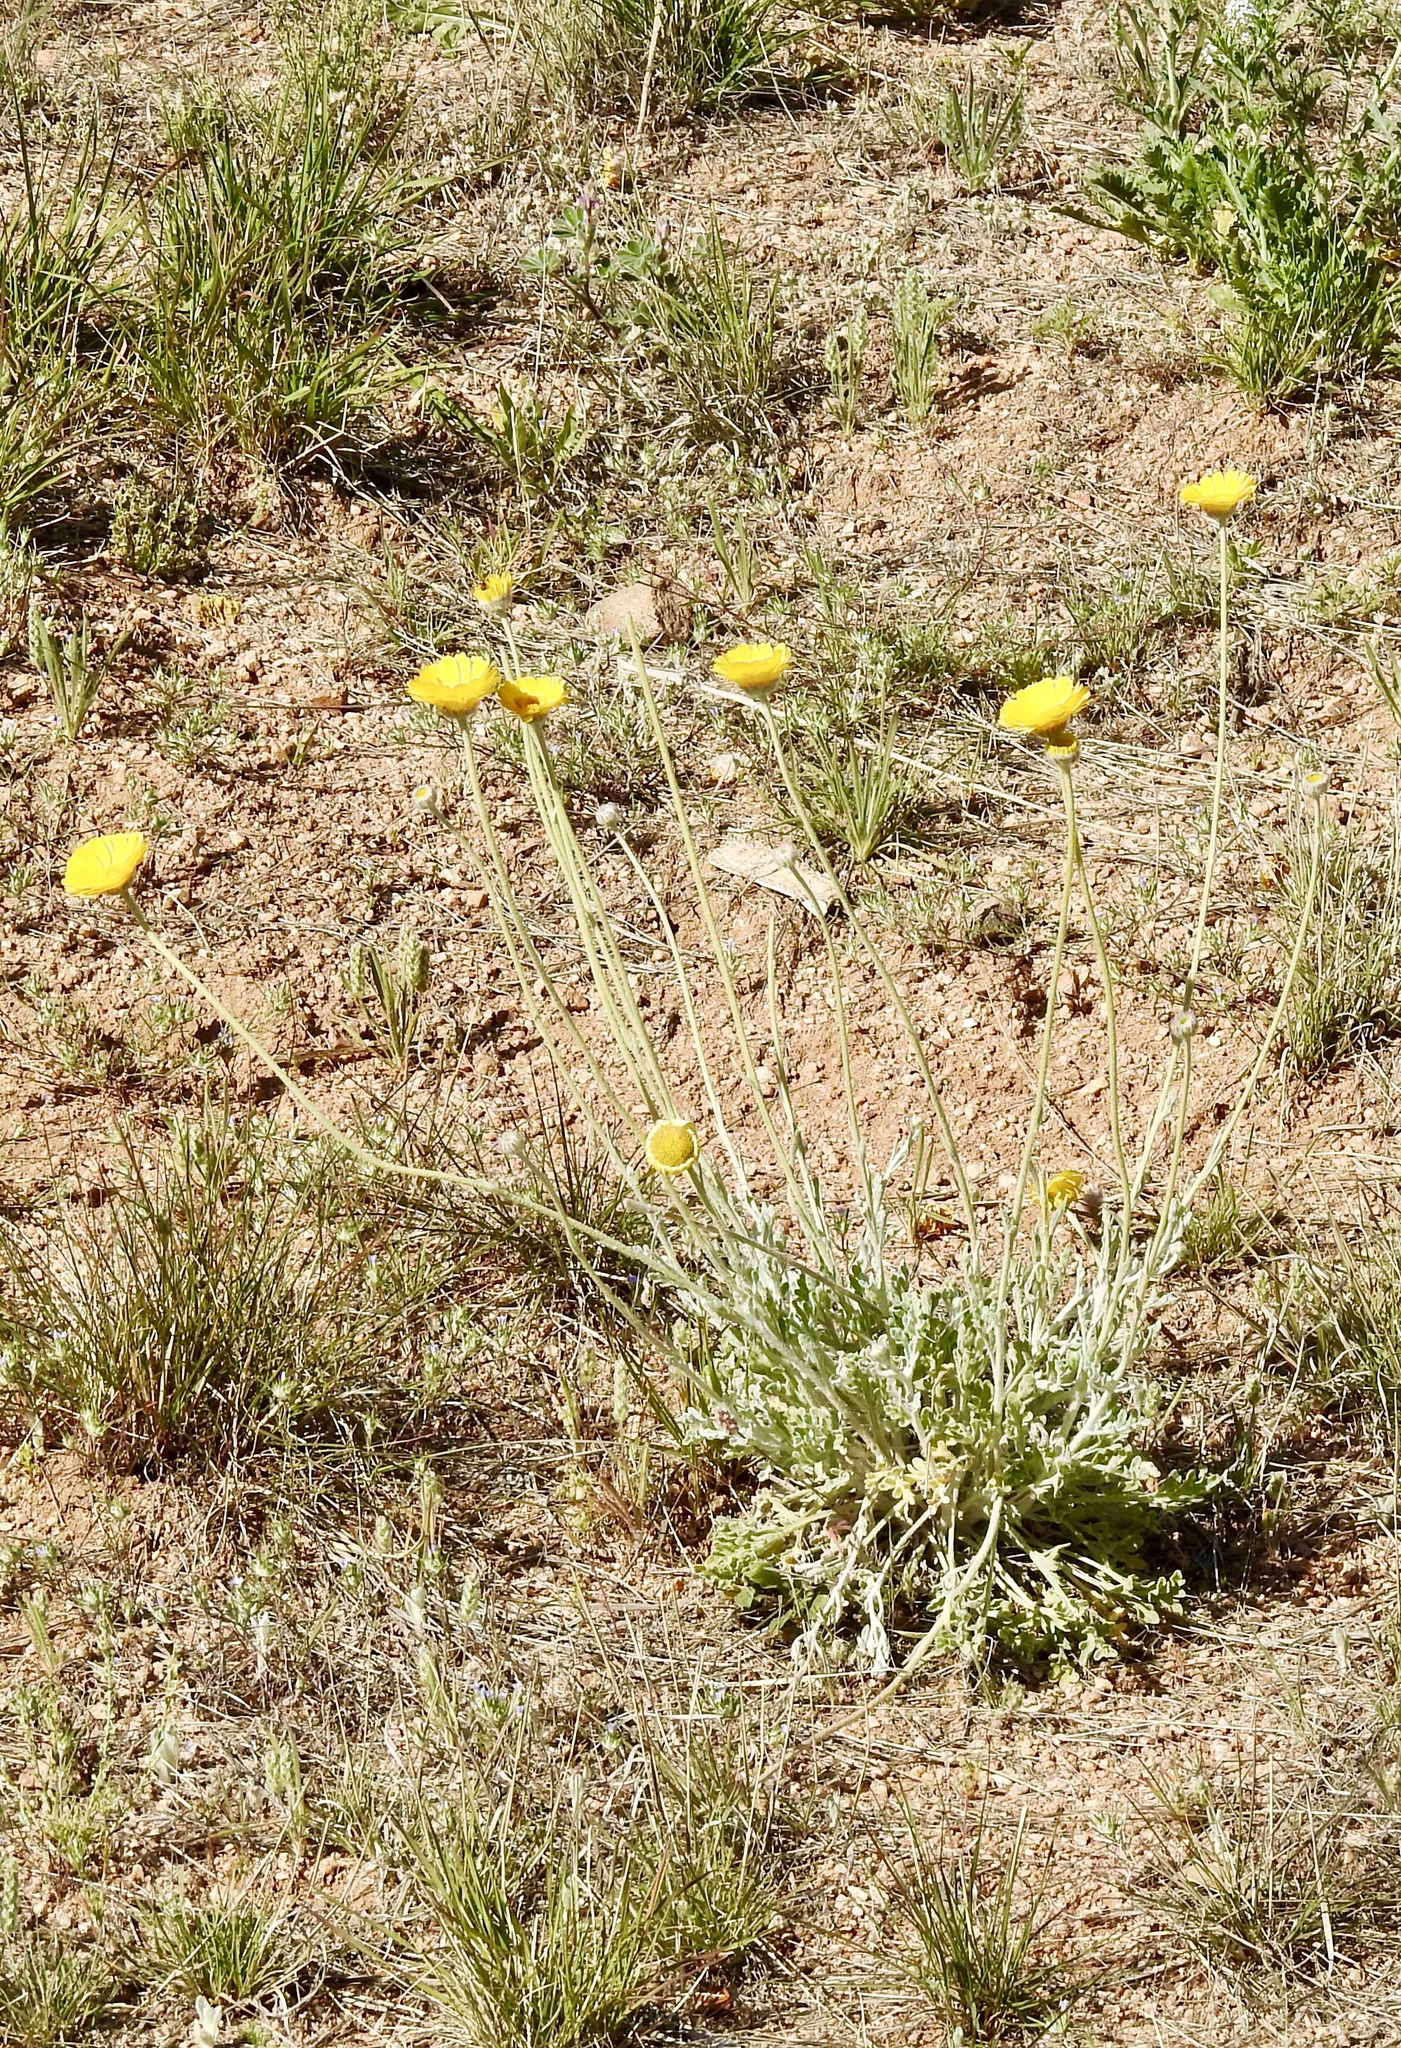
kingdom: Plantae
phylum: Tracheophyta
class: Magnoliopsida
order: Asterales
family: Asteraceae
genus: Baileya
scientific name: Baileya multiradiata
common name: Desert-marigold
